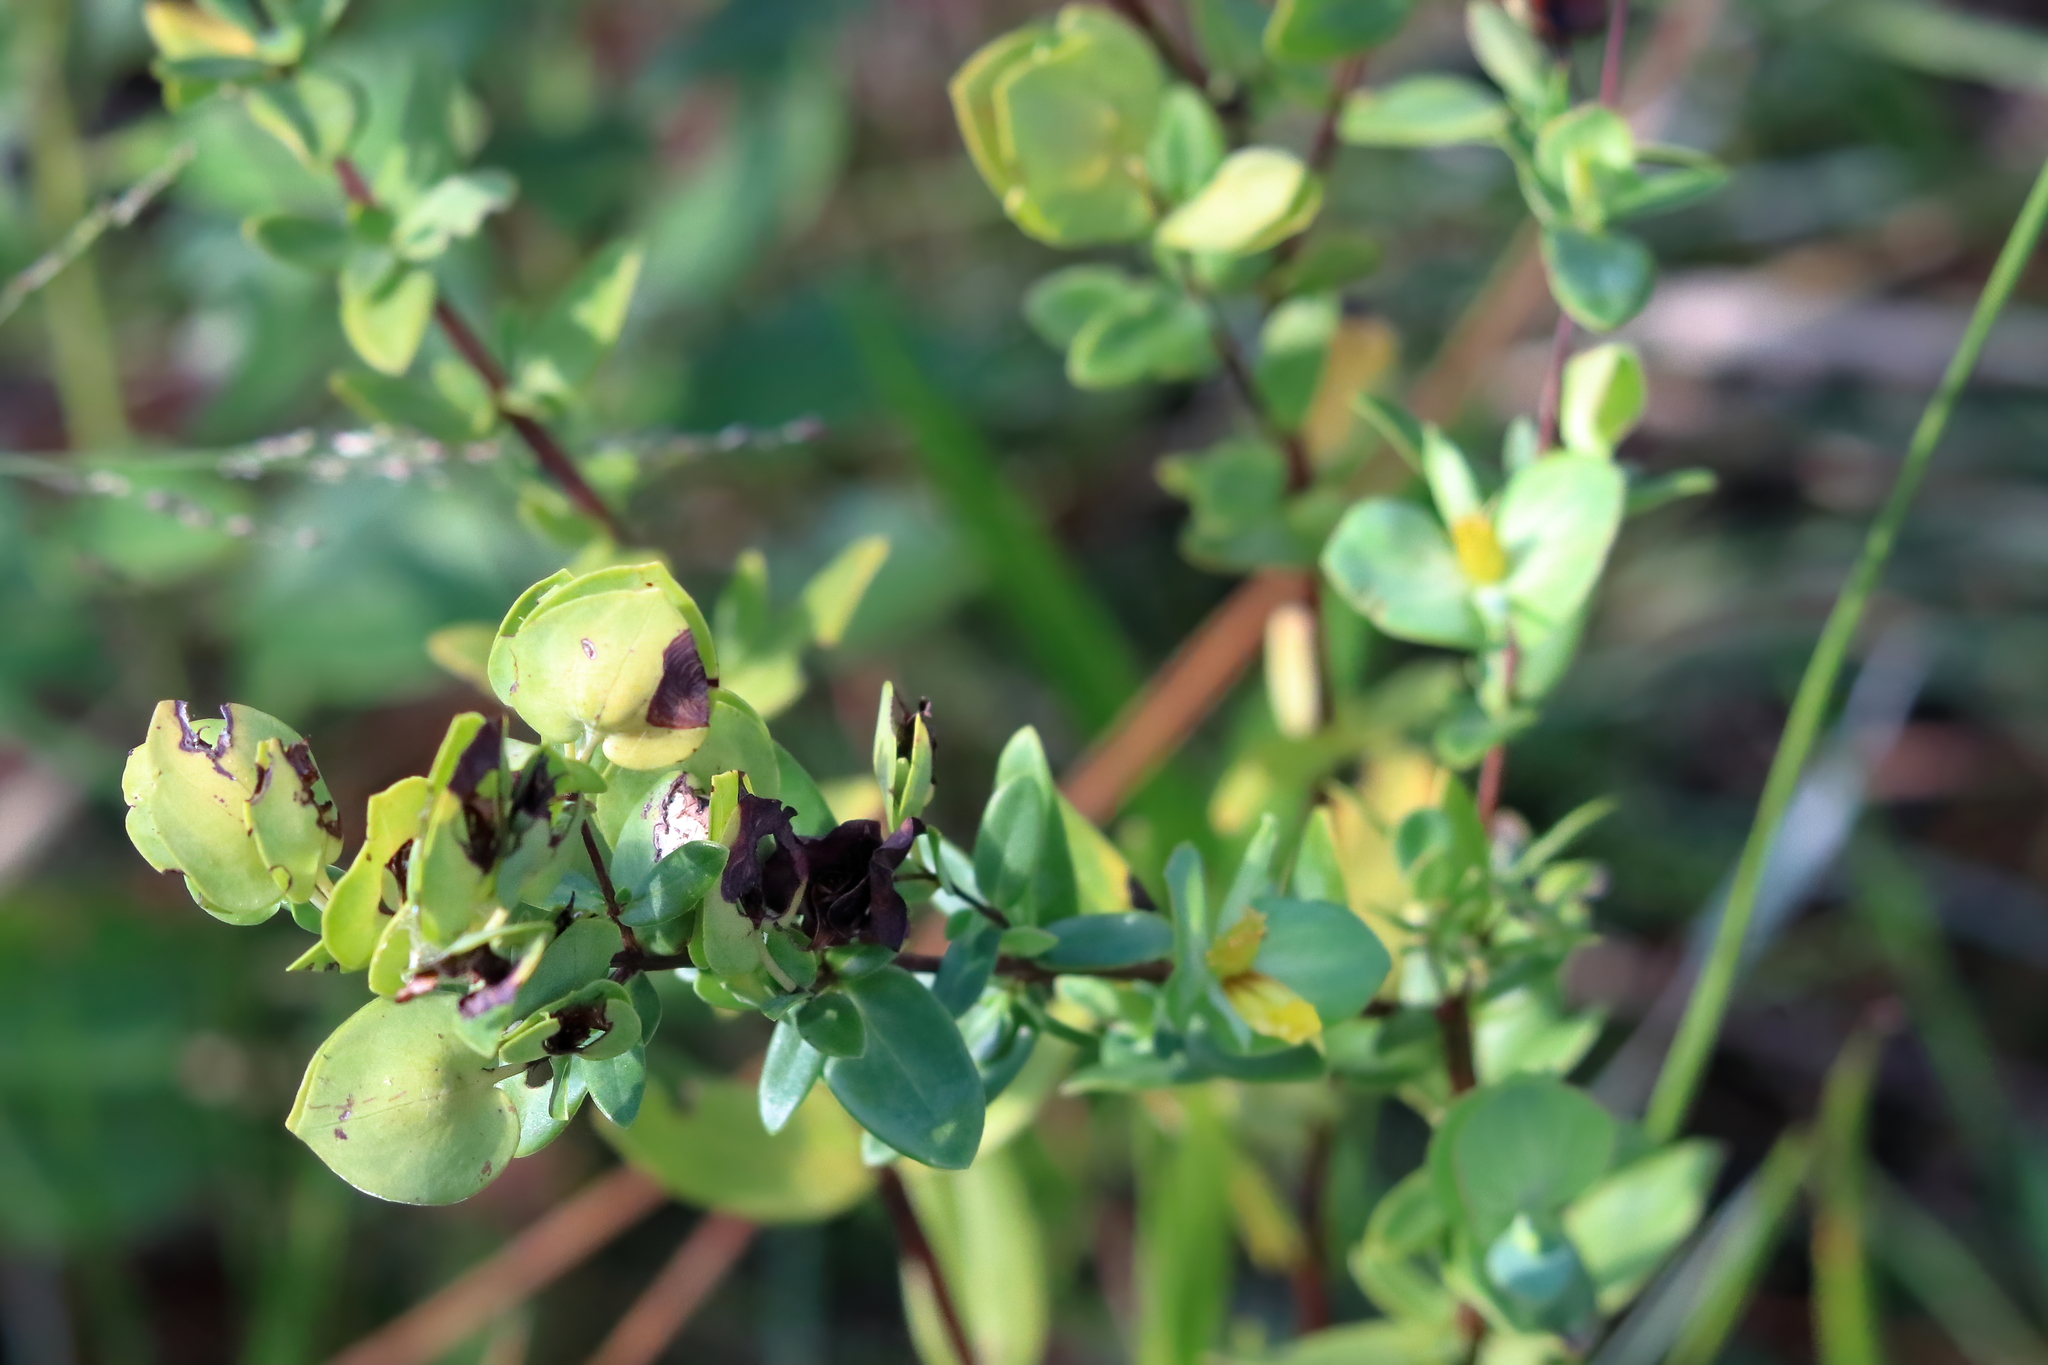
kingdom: Plantae
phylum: Tracheophyta
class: Magnoliopsida
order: Malpighiales
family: Hypericaceae
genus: Hypericum
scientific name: Hypericum crux-andreae
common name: St.-peter's-wort
